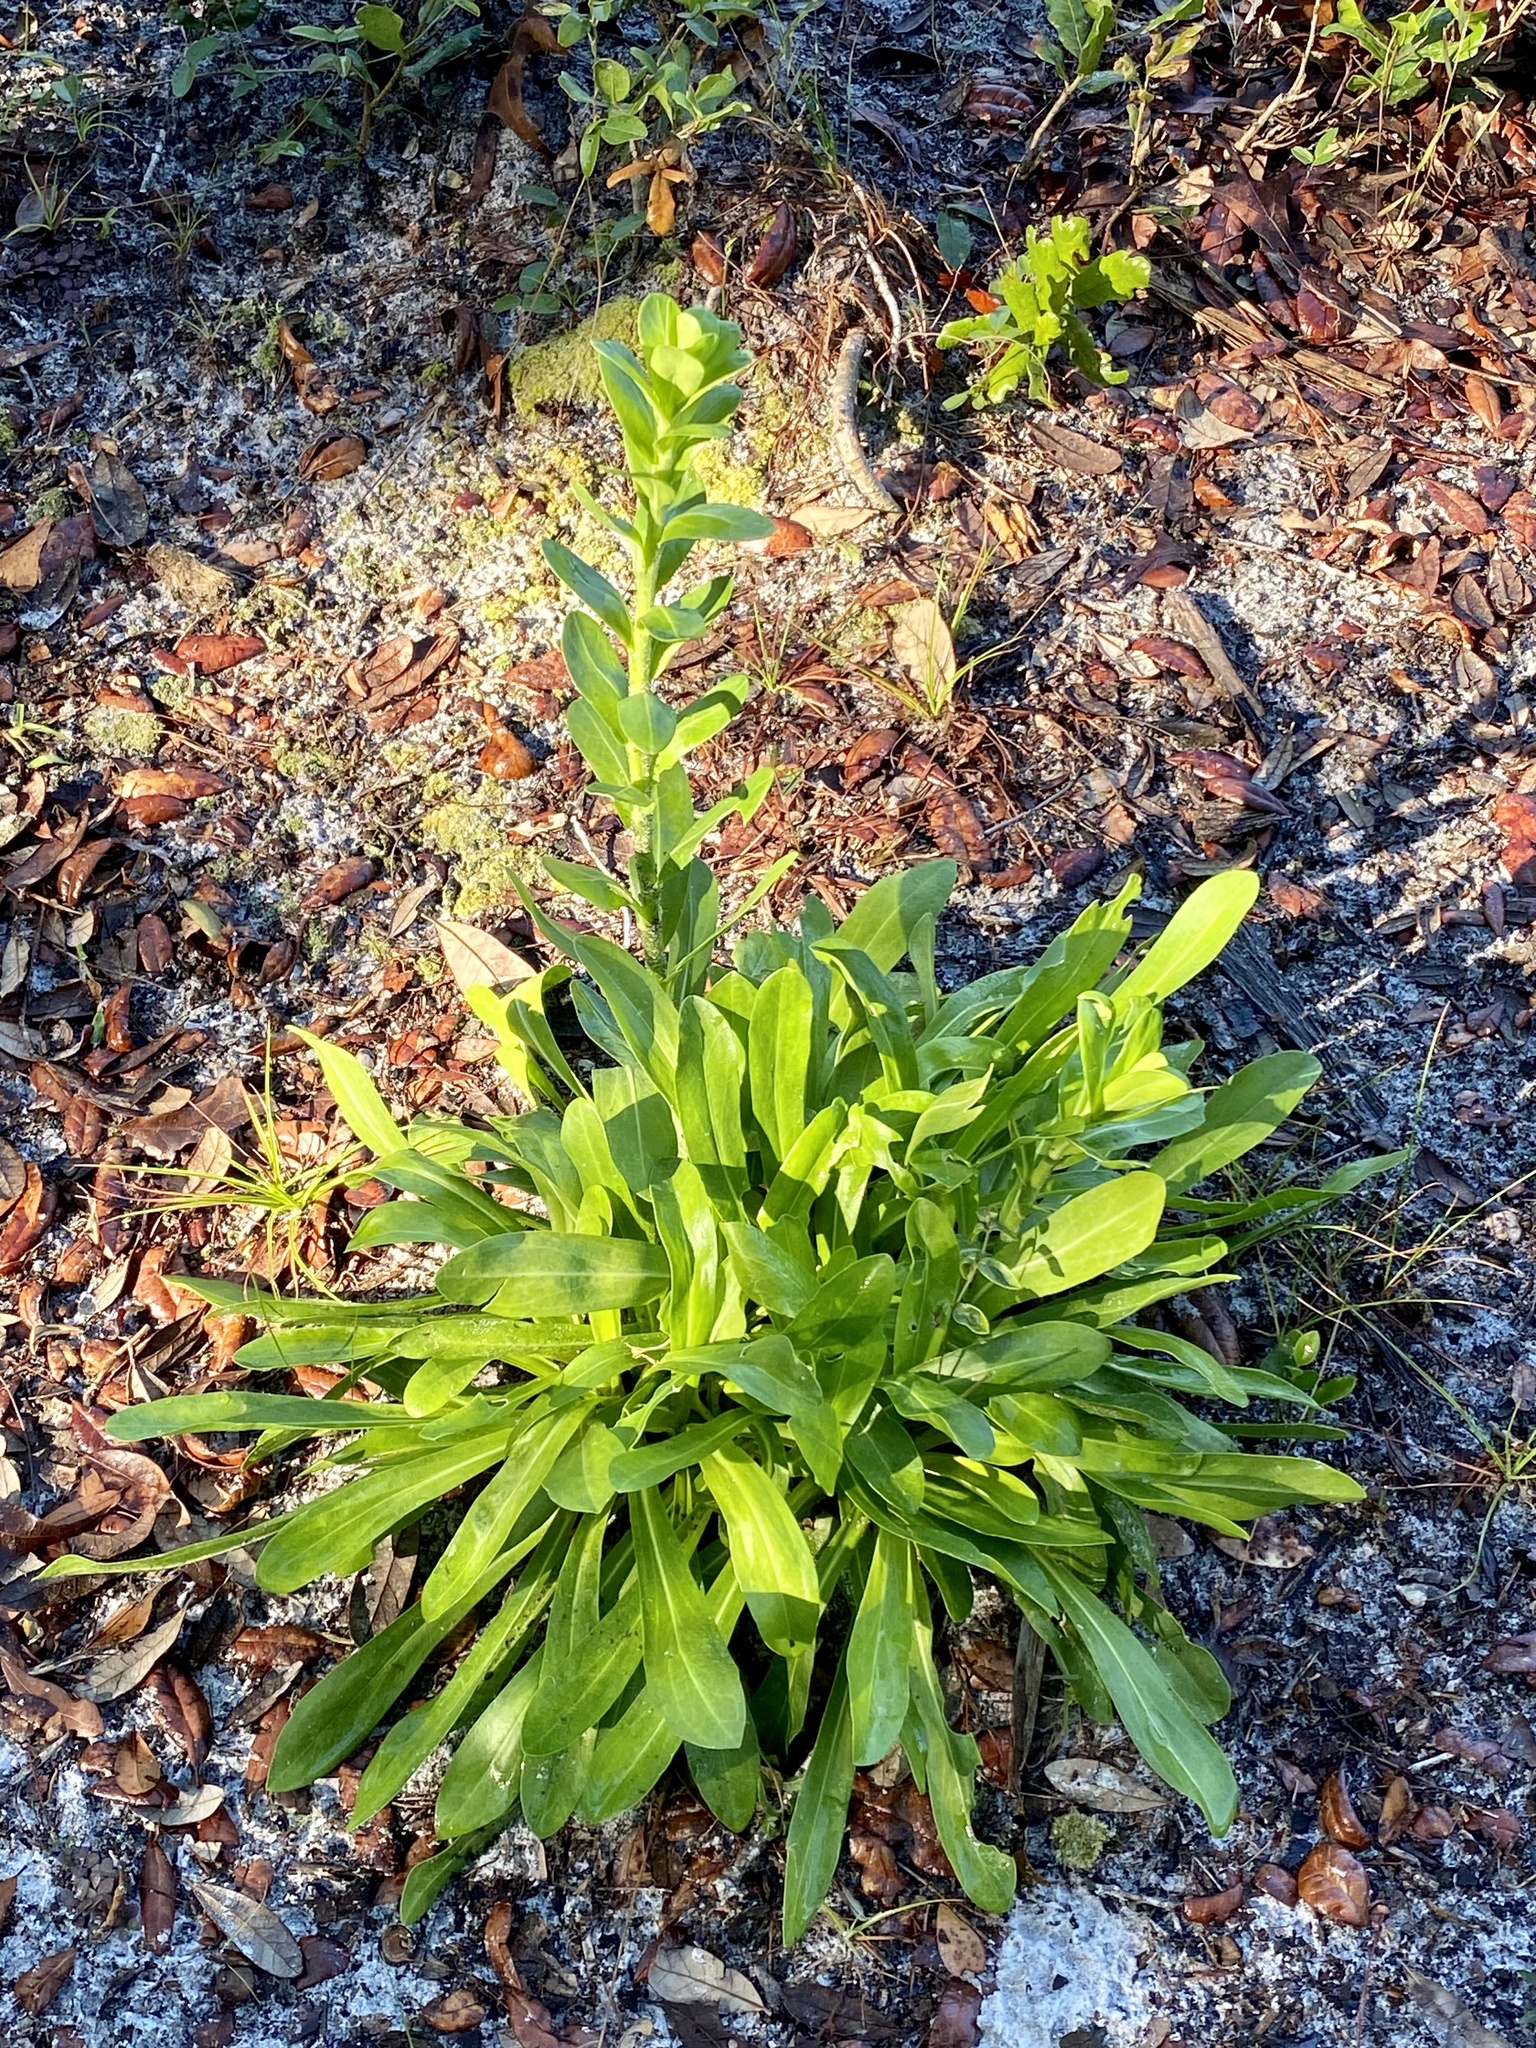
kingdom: Plantae
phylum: Tracheophyta
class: Magnoliopsida
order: Asterales
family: Asteraceae
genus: Carphephorus
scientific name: Carphephorus corymbosus
